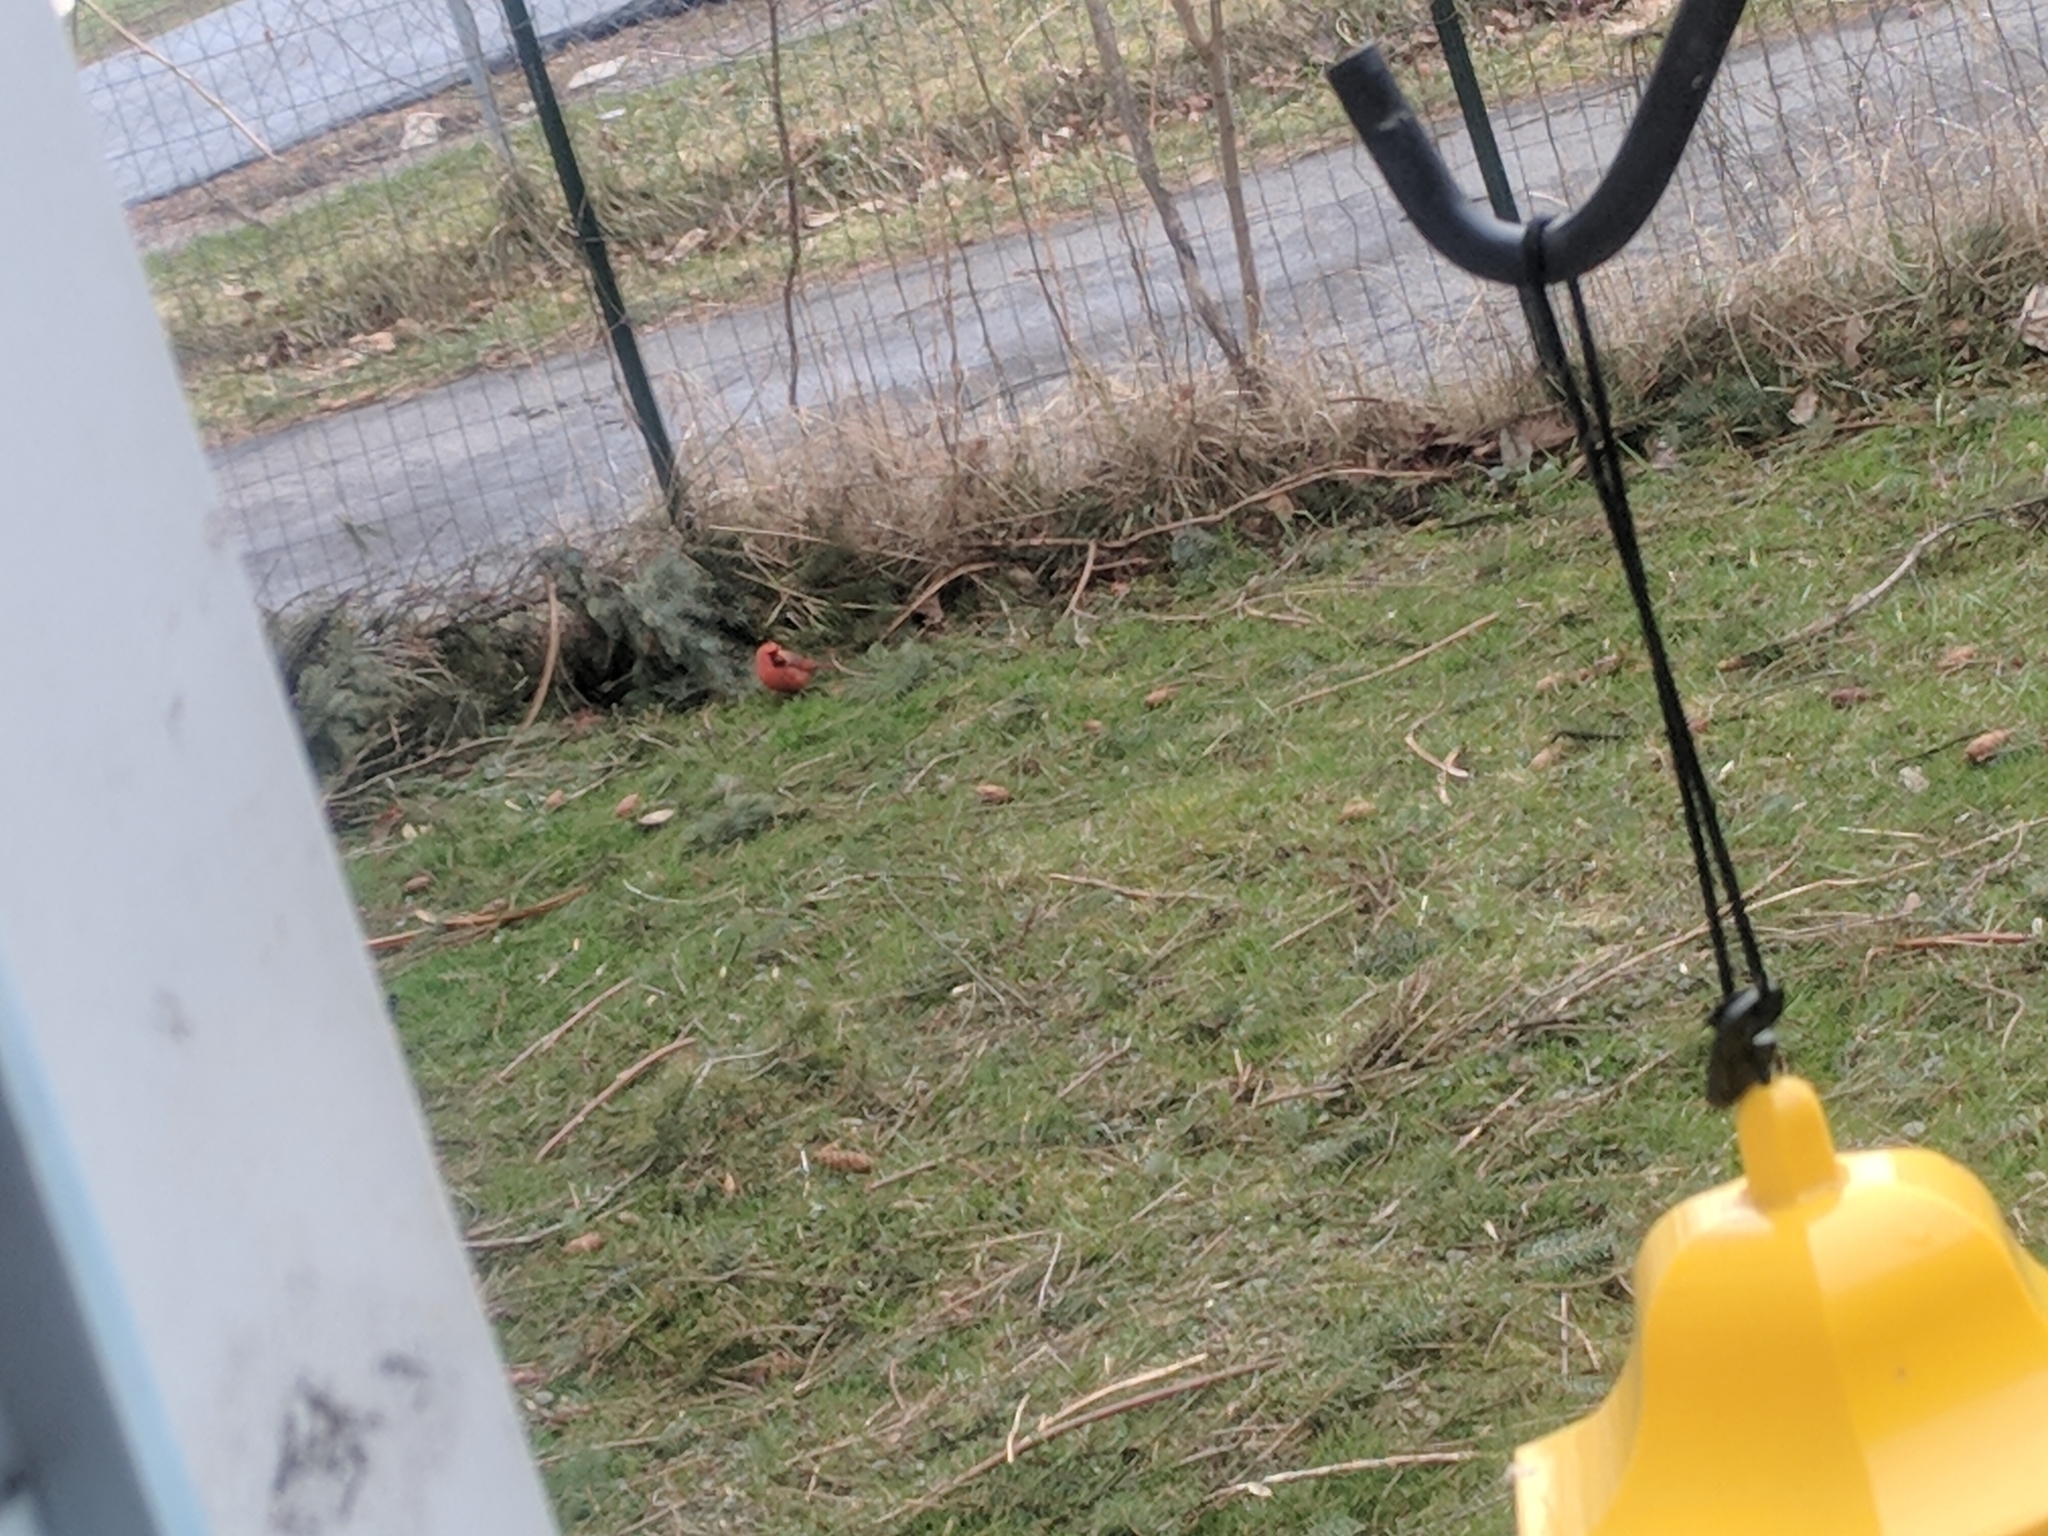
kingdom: Animalia
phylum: Chordata
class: Aves
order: Passeriformes
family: Cardinalidae
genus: Cardinalis
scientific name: Cardinalis cardinalis
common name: Northern cardinal
